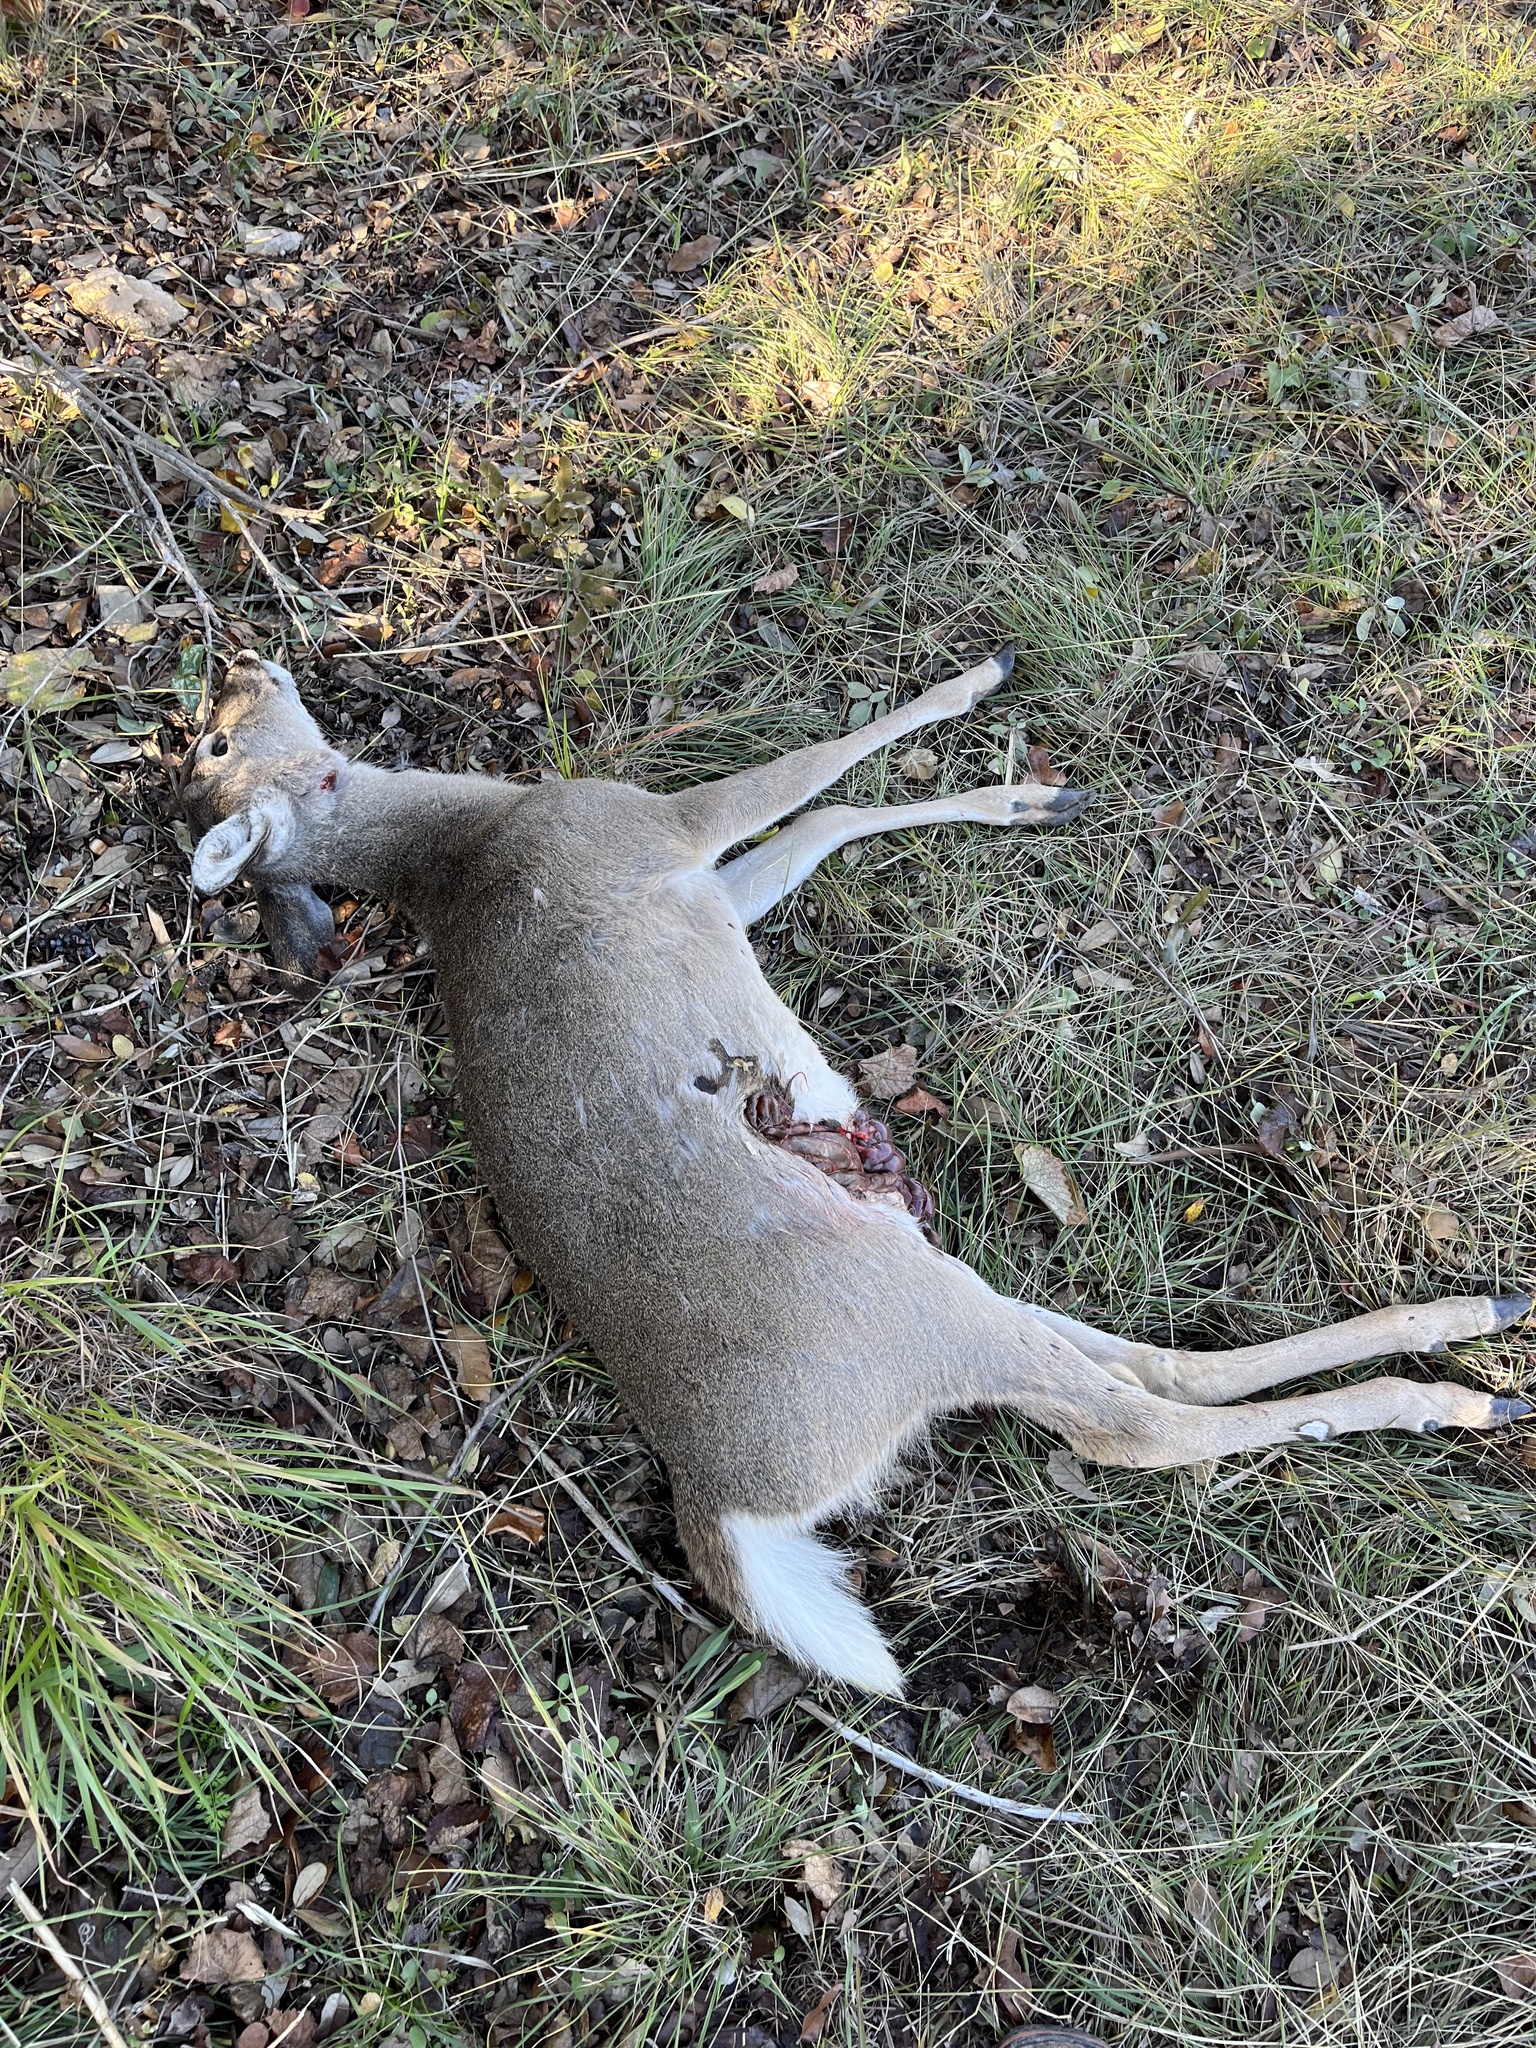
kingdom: Animalia
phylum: Chordata
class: Mammalia
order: Artiodactyla
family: Cervidae
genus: Odocoileus
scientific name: Odocoileus virginianus
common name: White-tailed deer
